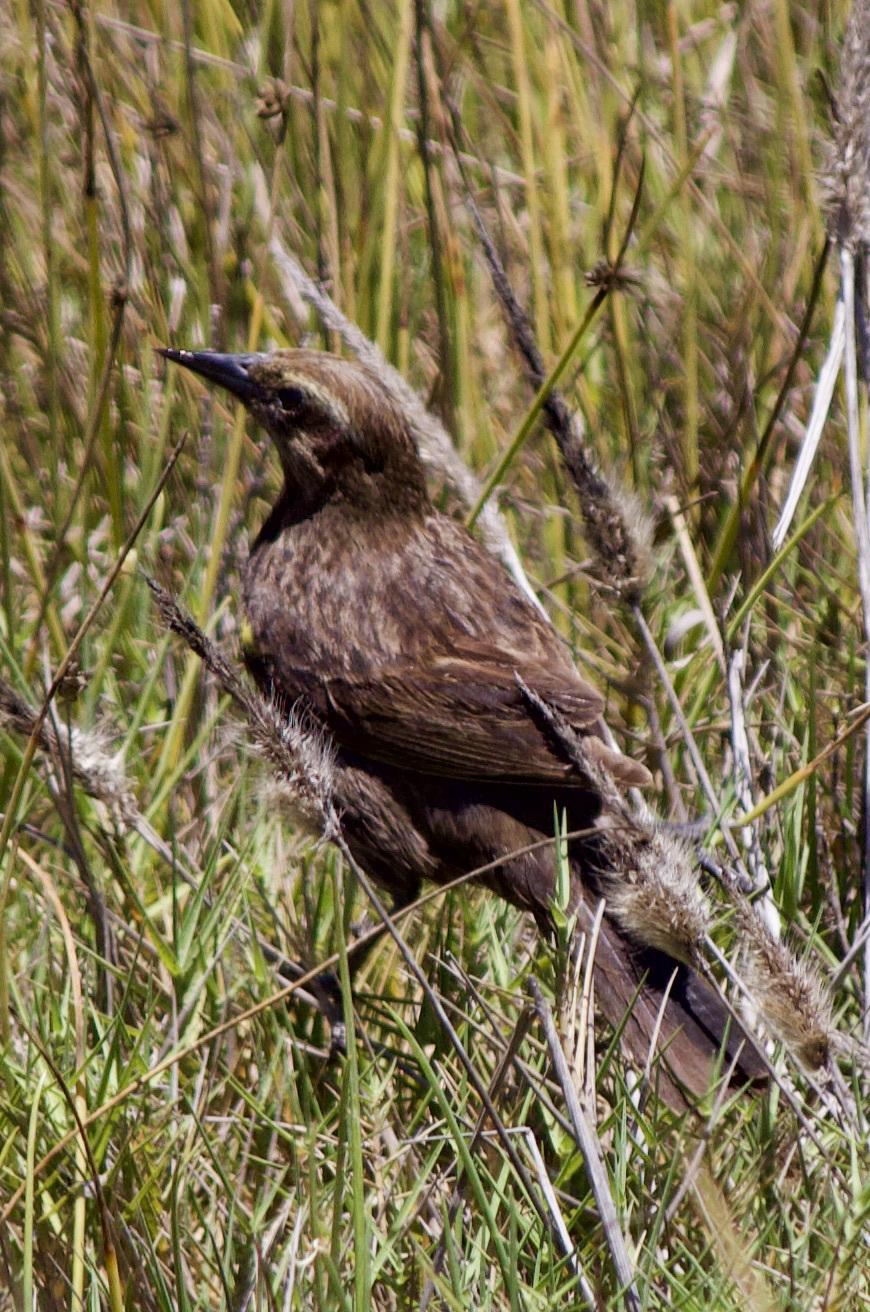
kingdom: Animalia
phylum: Chordata
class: Aves
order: Passeriformes
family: Icteridae
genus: Agelasticus
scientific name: Agelasticus thilius
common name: Yellow-winged blackbird
